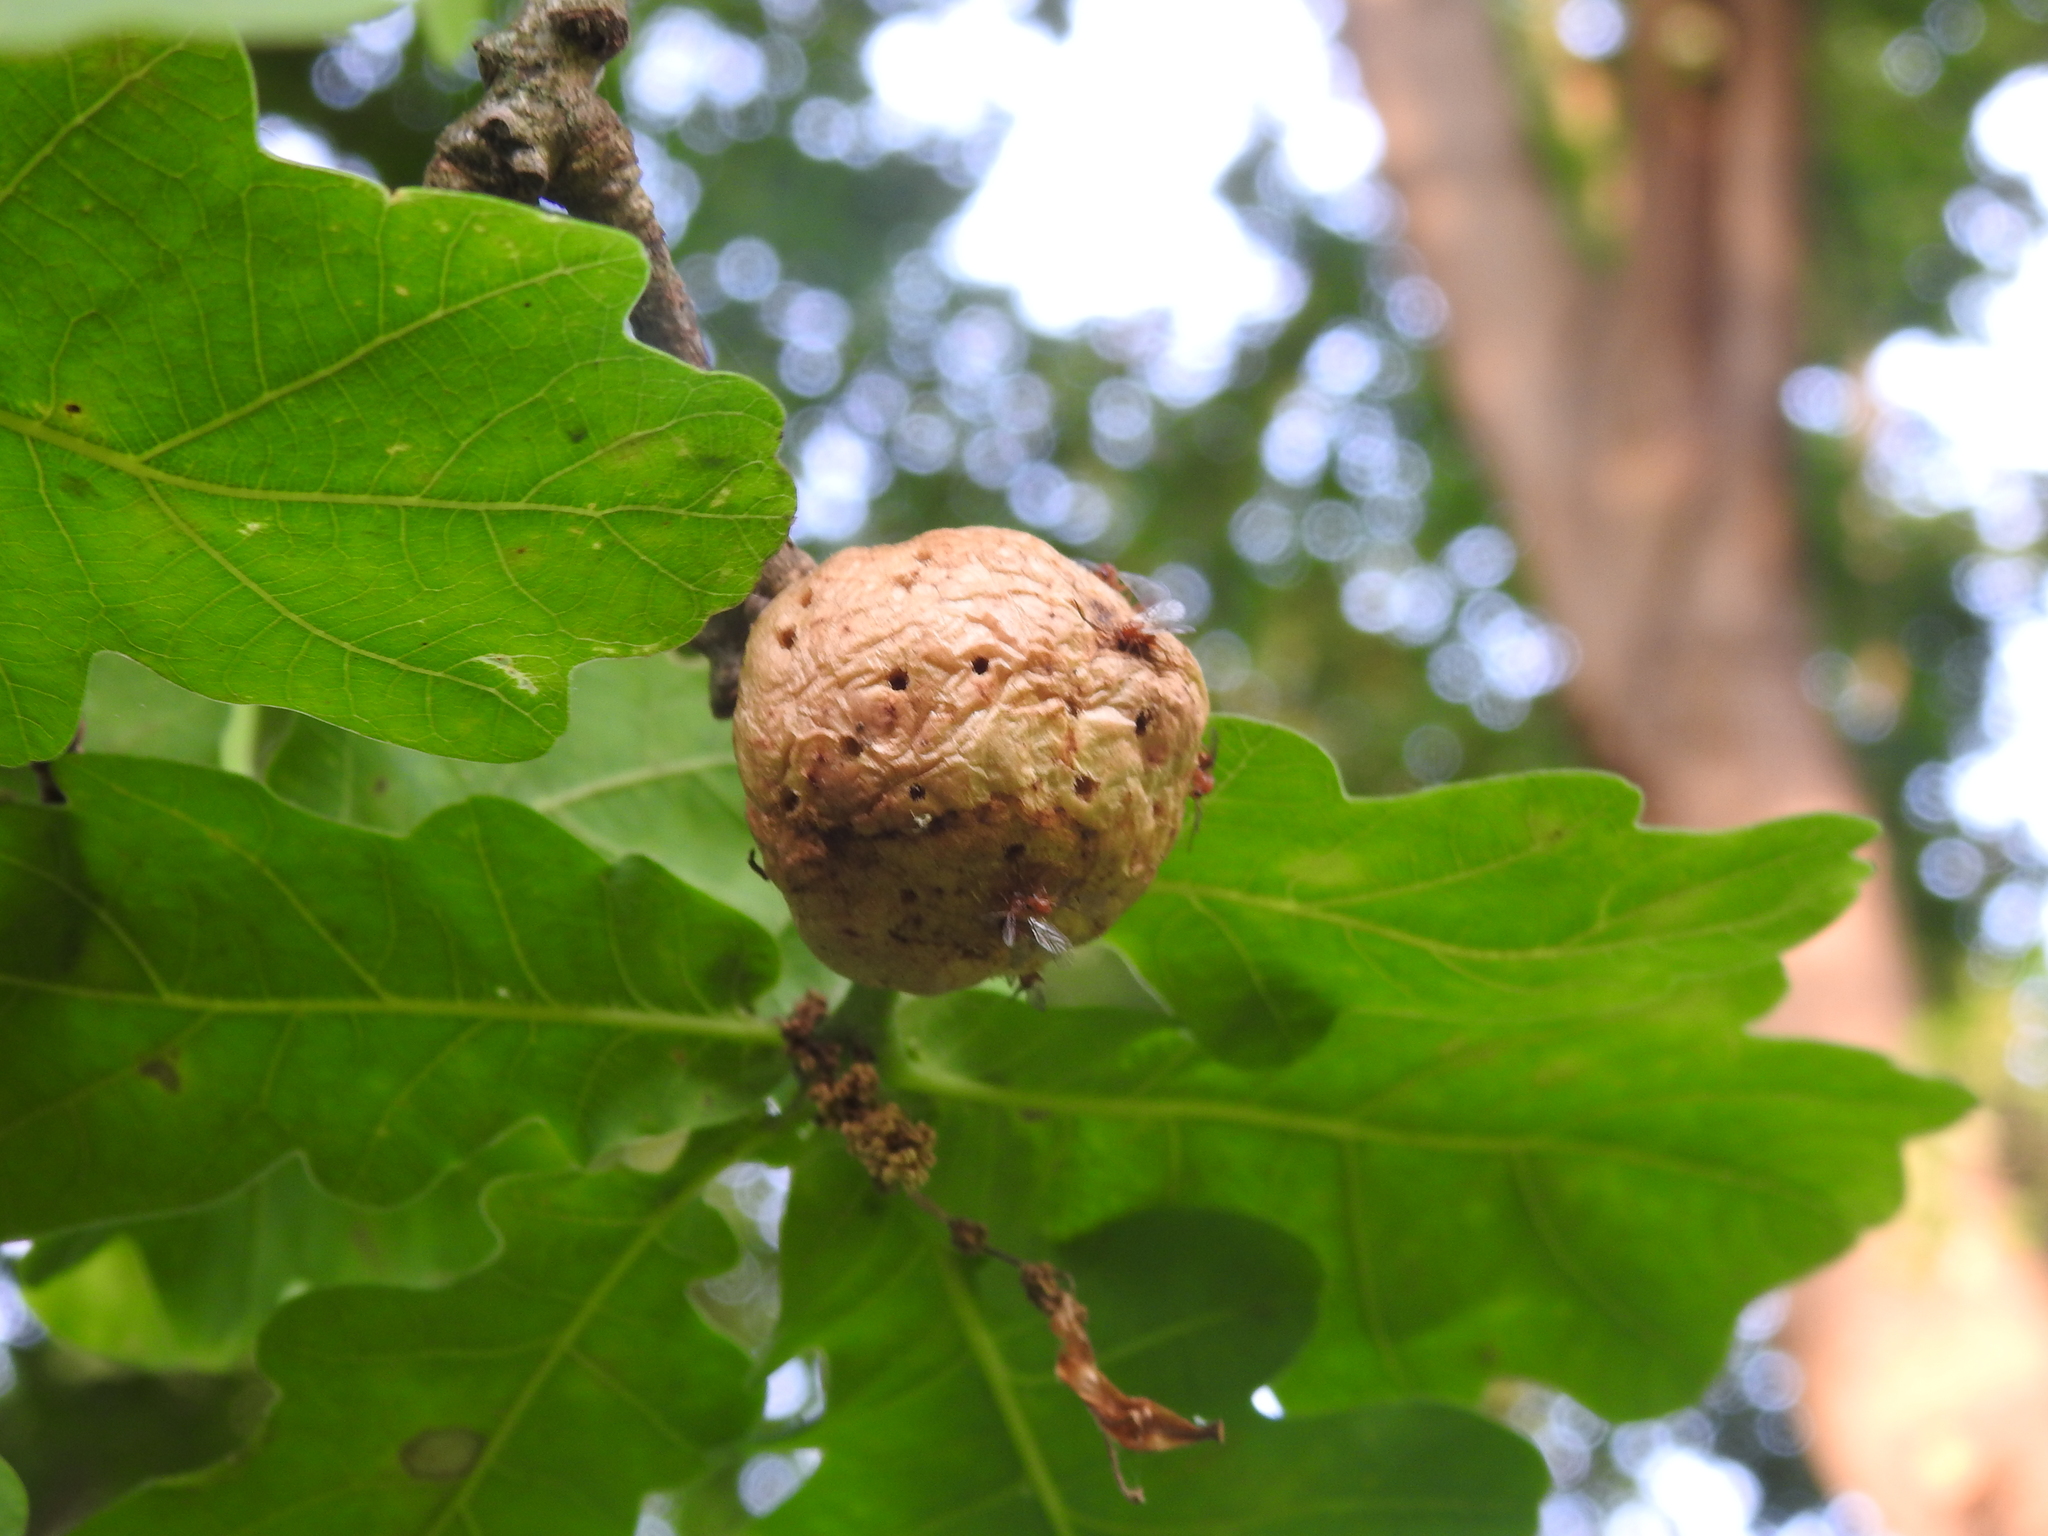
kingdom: Animalia
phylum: Arthropoda
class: Insecta
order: Hymenoptera
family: Cynipidae
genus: Biorhiza
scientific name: Biorhiza pallida
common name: Oak apple
